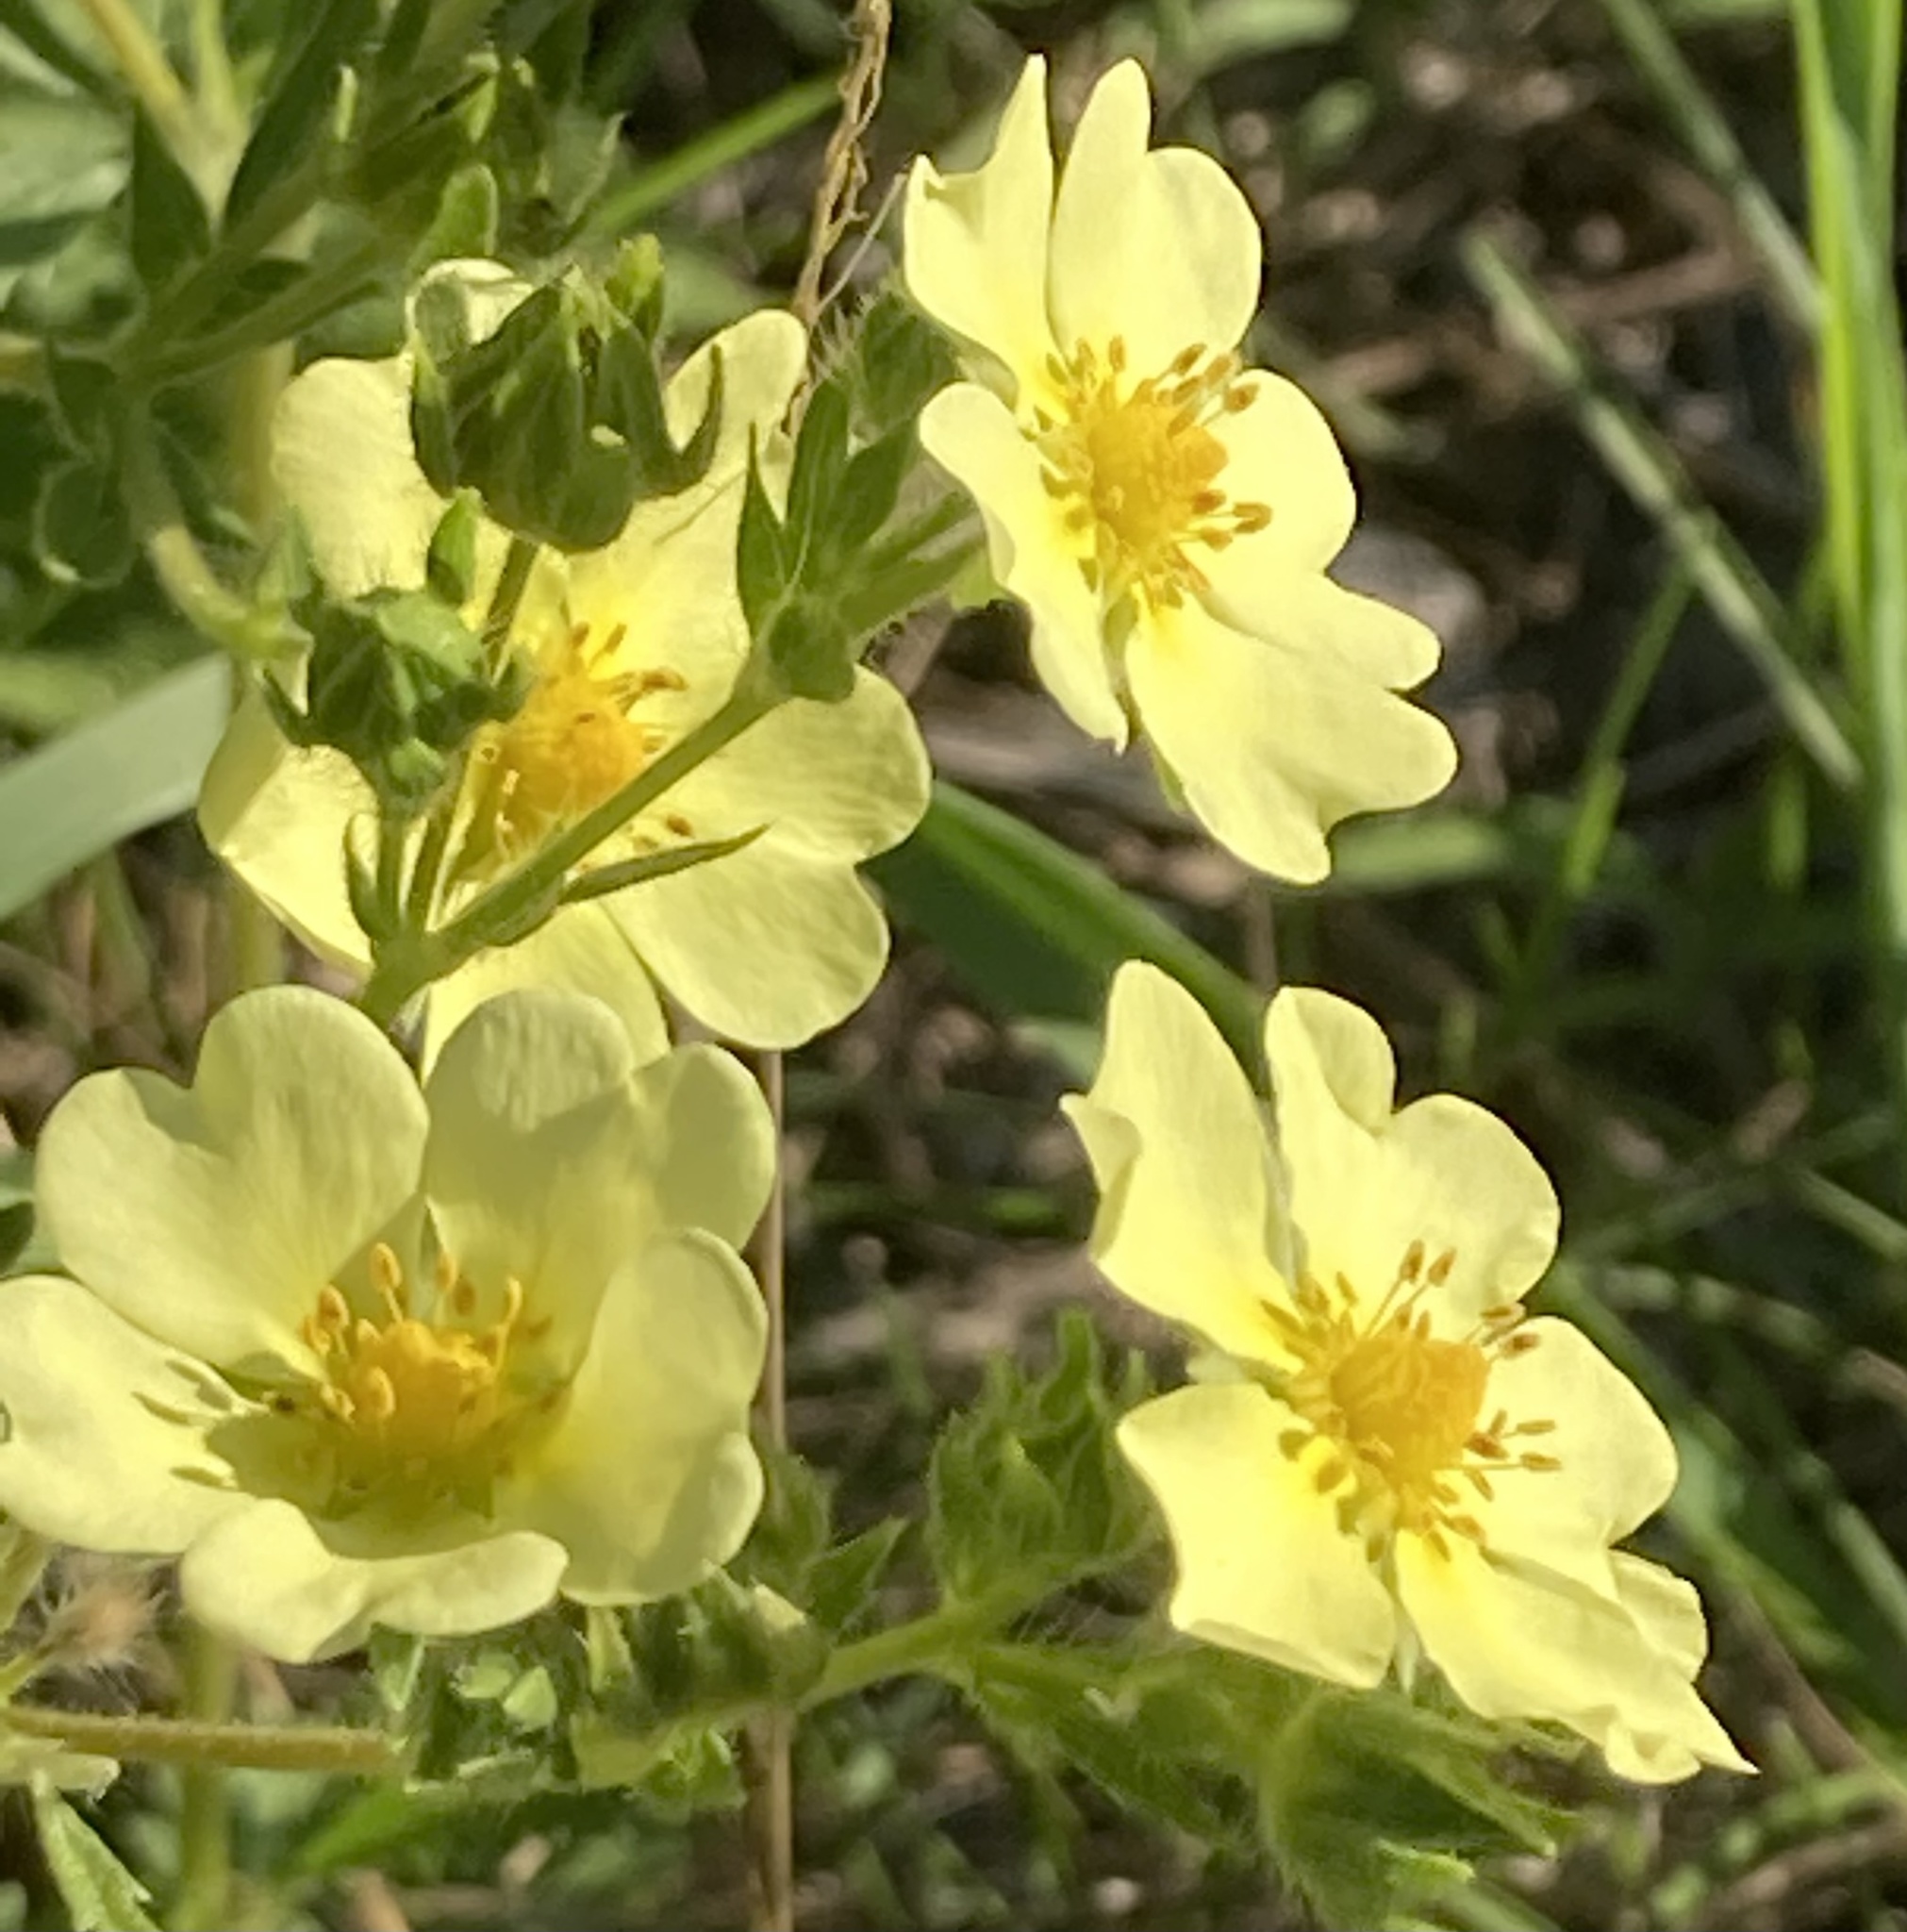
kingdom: Plantae
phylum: Tracheophyta
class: Magnoliopsida
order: Rosales
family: Rosaceae
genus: Potentilla
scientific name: Potentilla recta
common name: Sulphur cinquefoil
